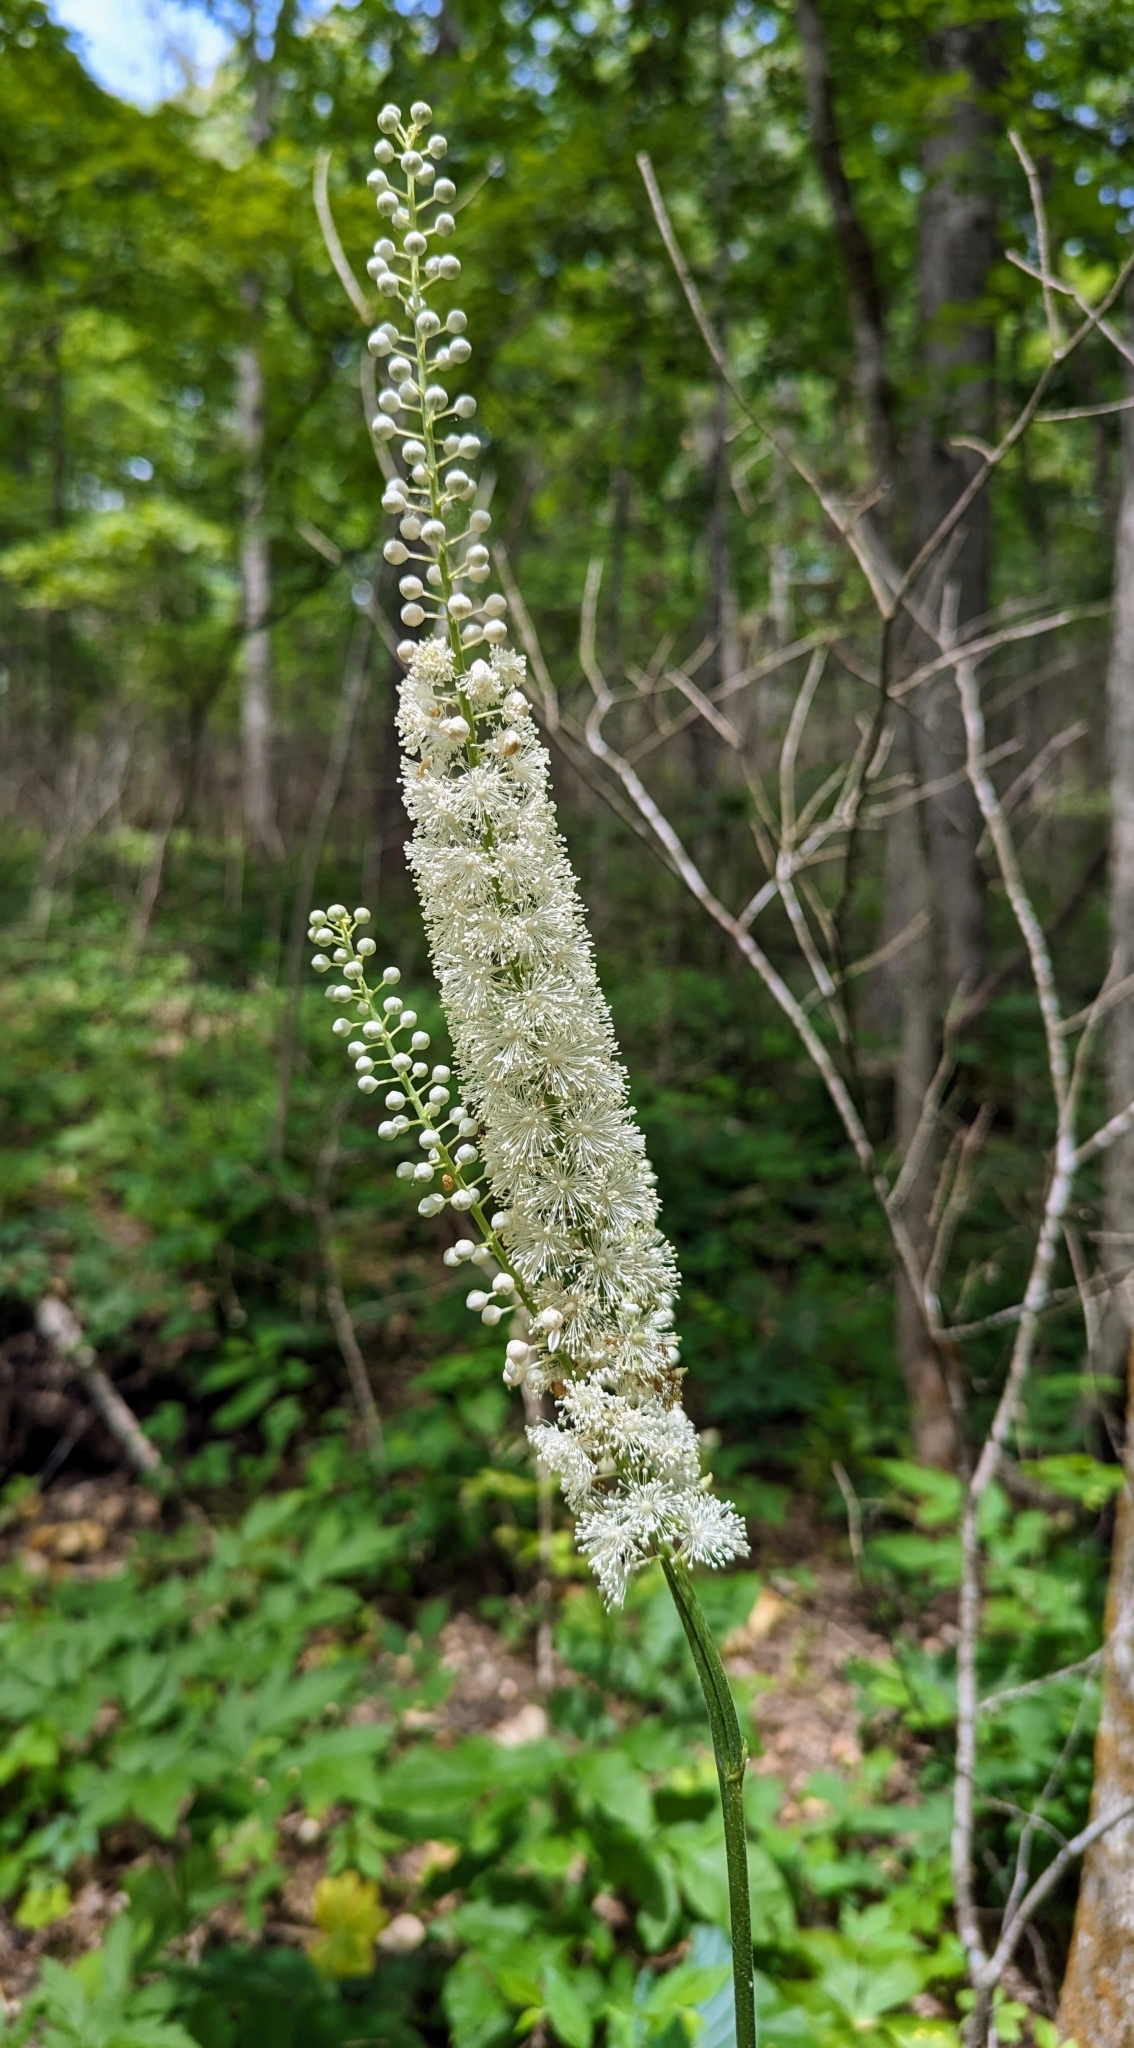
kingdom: Plantae
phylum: Tracheophyta
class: Magnoliopsida
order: Ranunculales
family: Ranunculaceae
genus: Actaea
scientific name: Actaea racemosa
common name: Black cohosh
